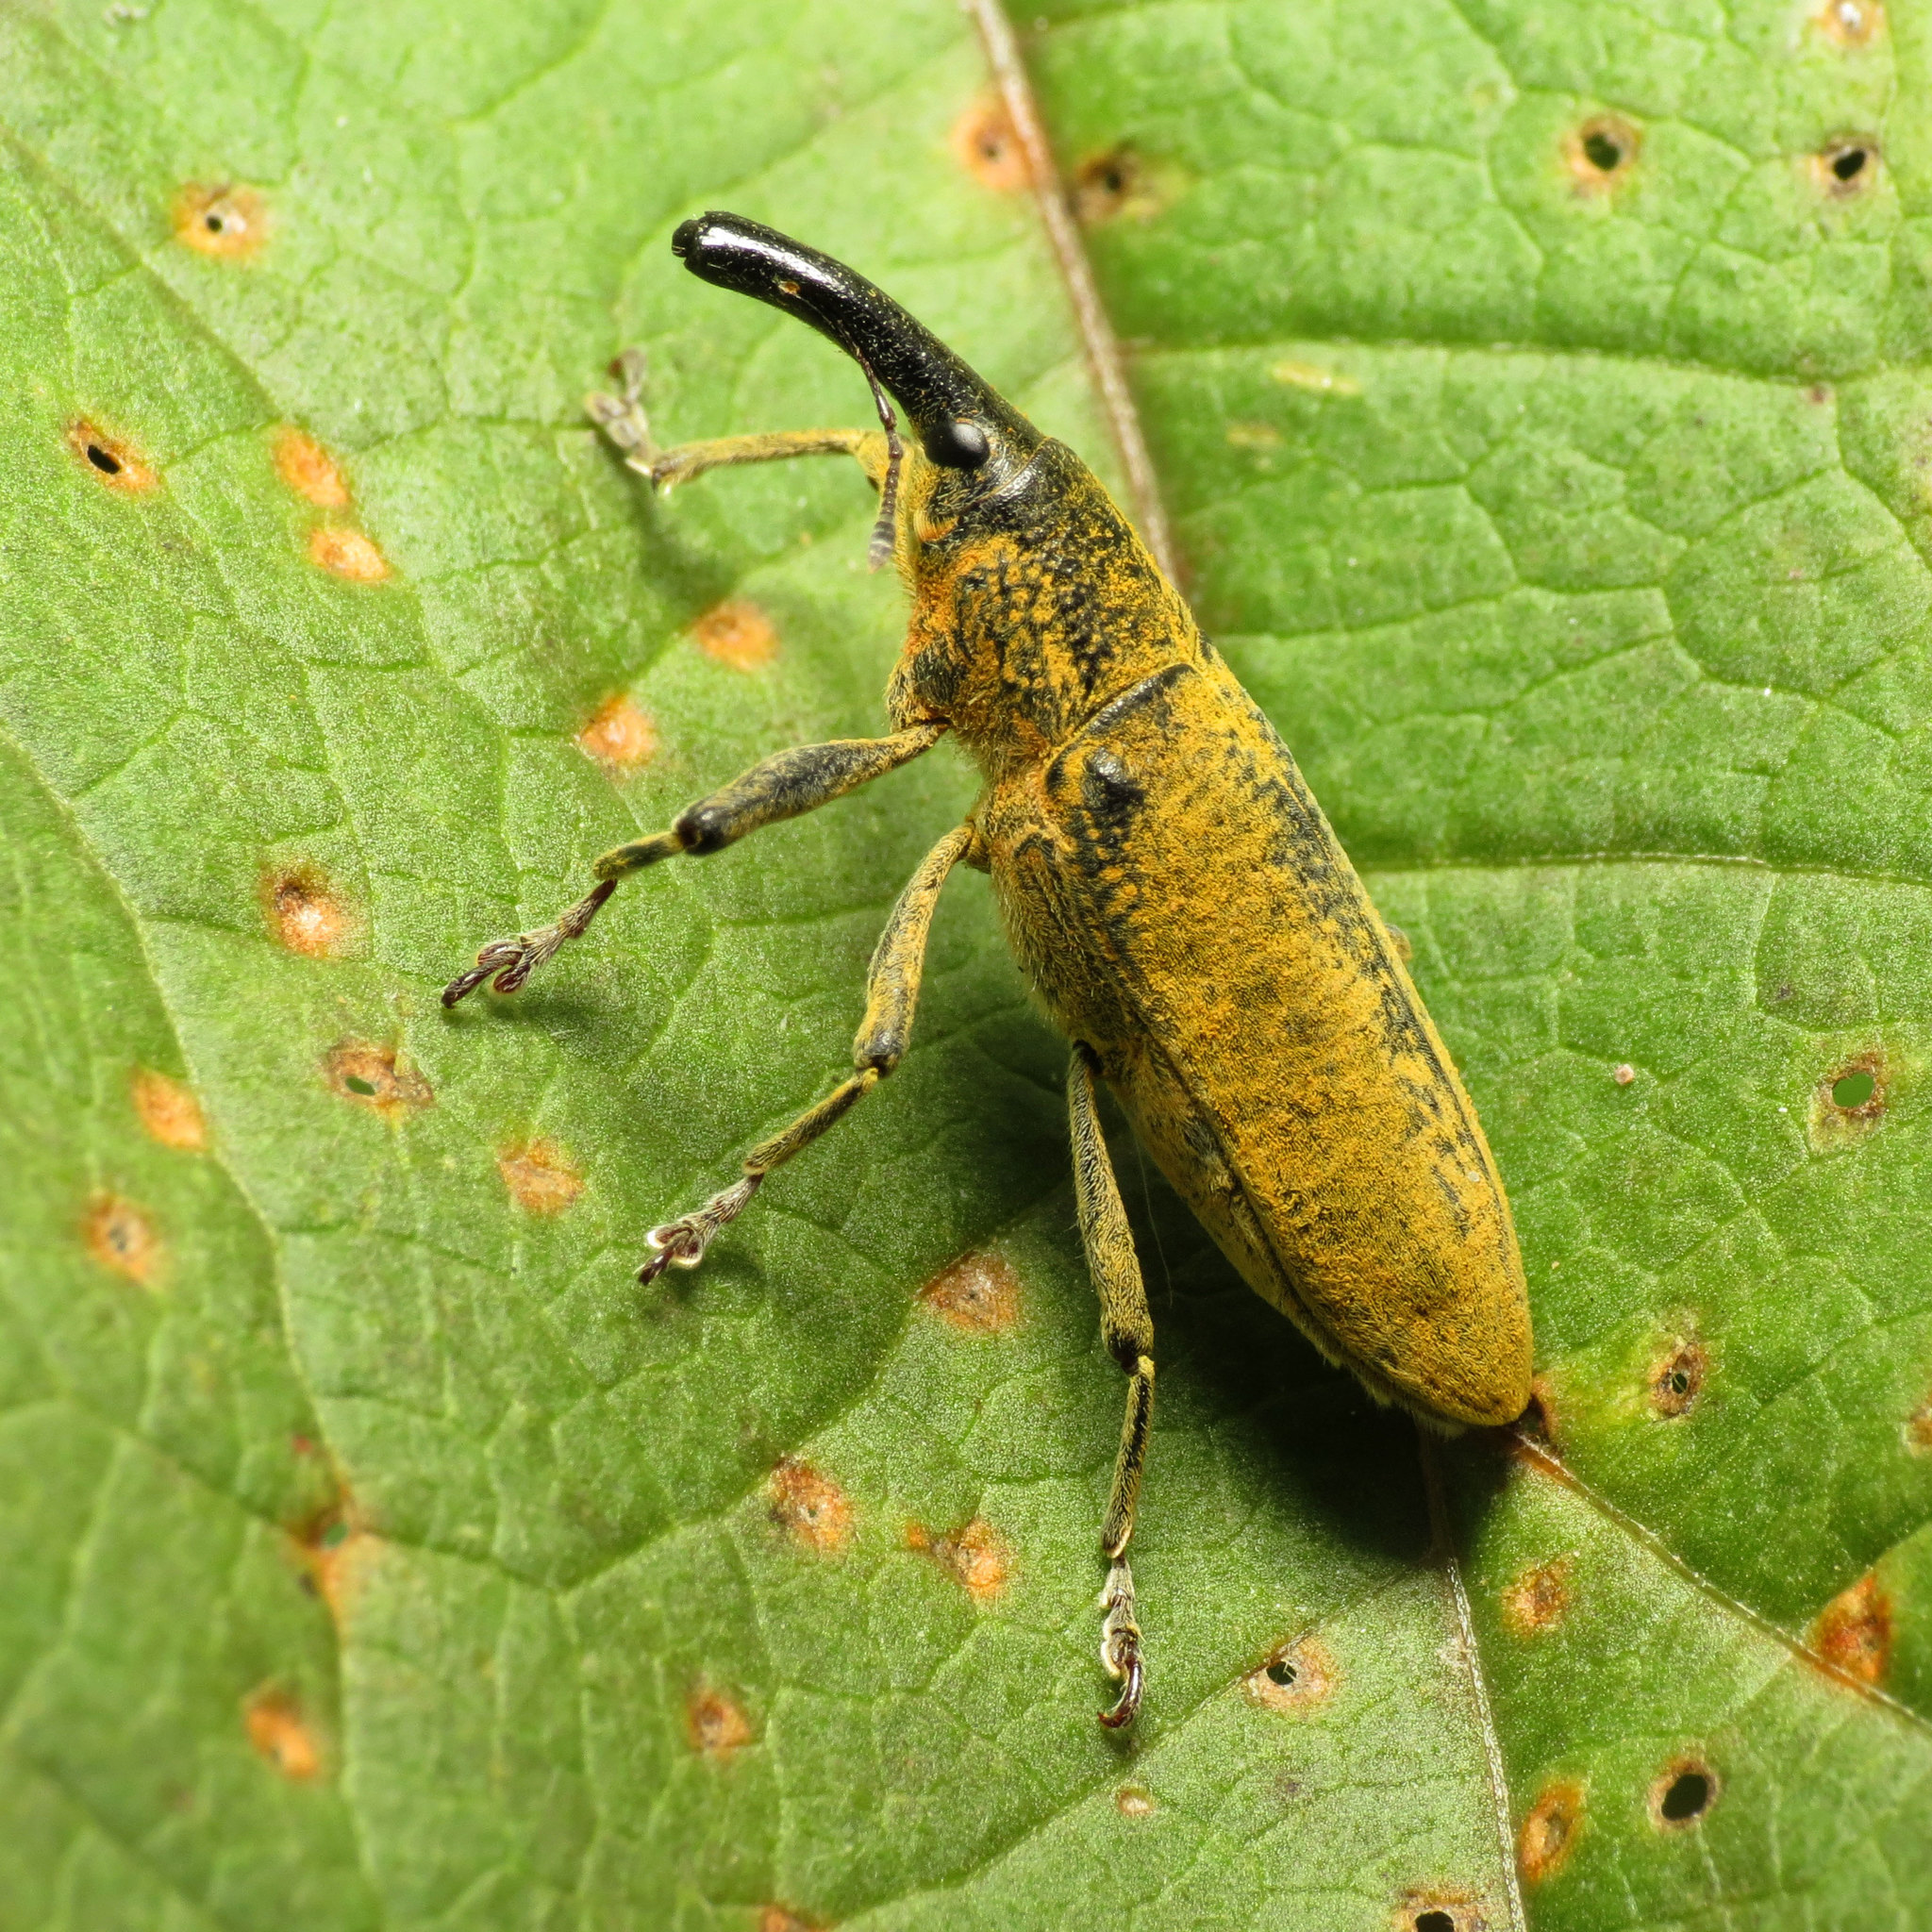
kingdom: Animalia
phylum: Arthropoda
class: Insecta
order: Coleoptera
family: Curculionidae
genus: Lixus
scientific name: Lixus pulverulentus
